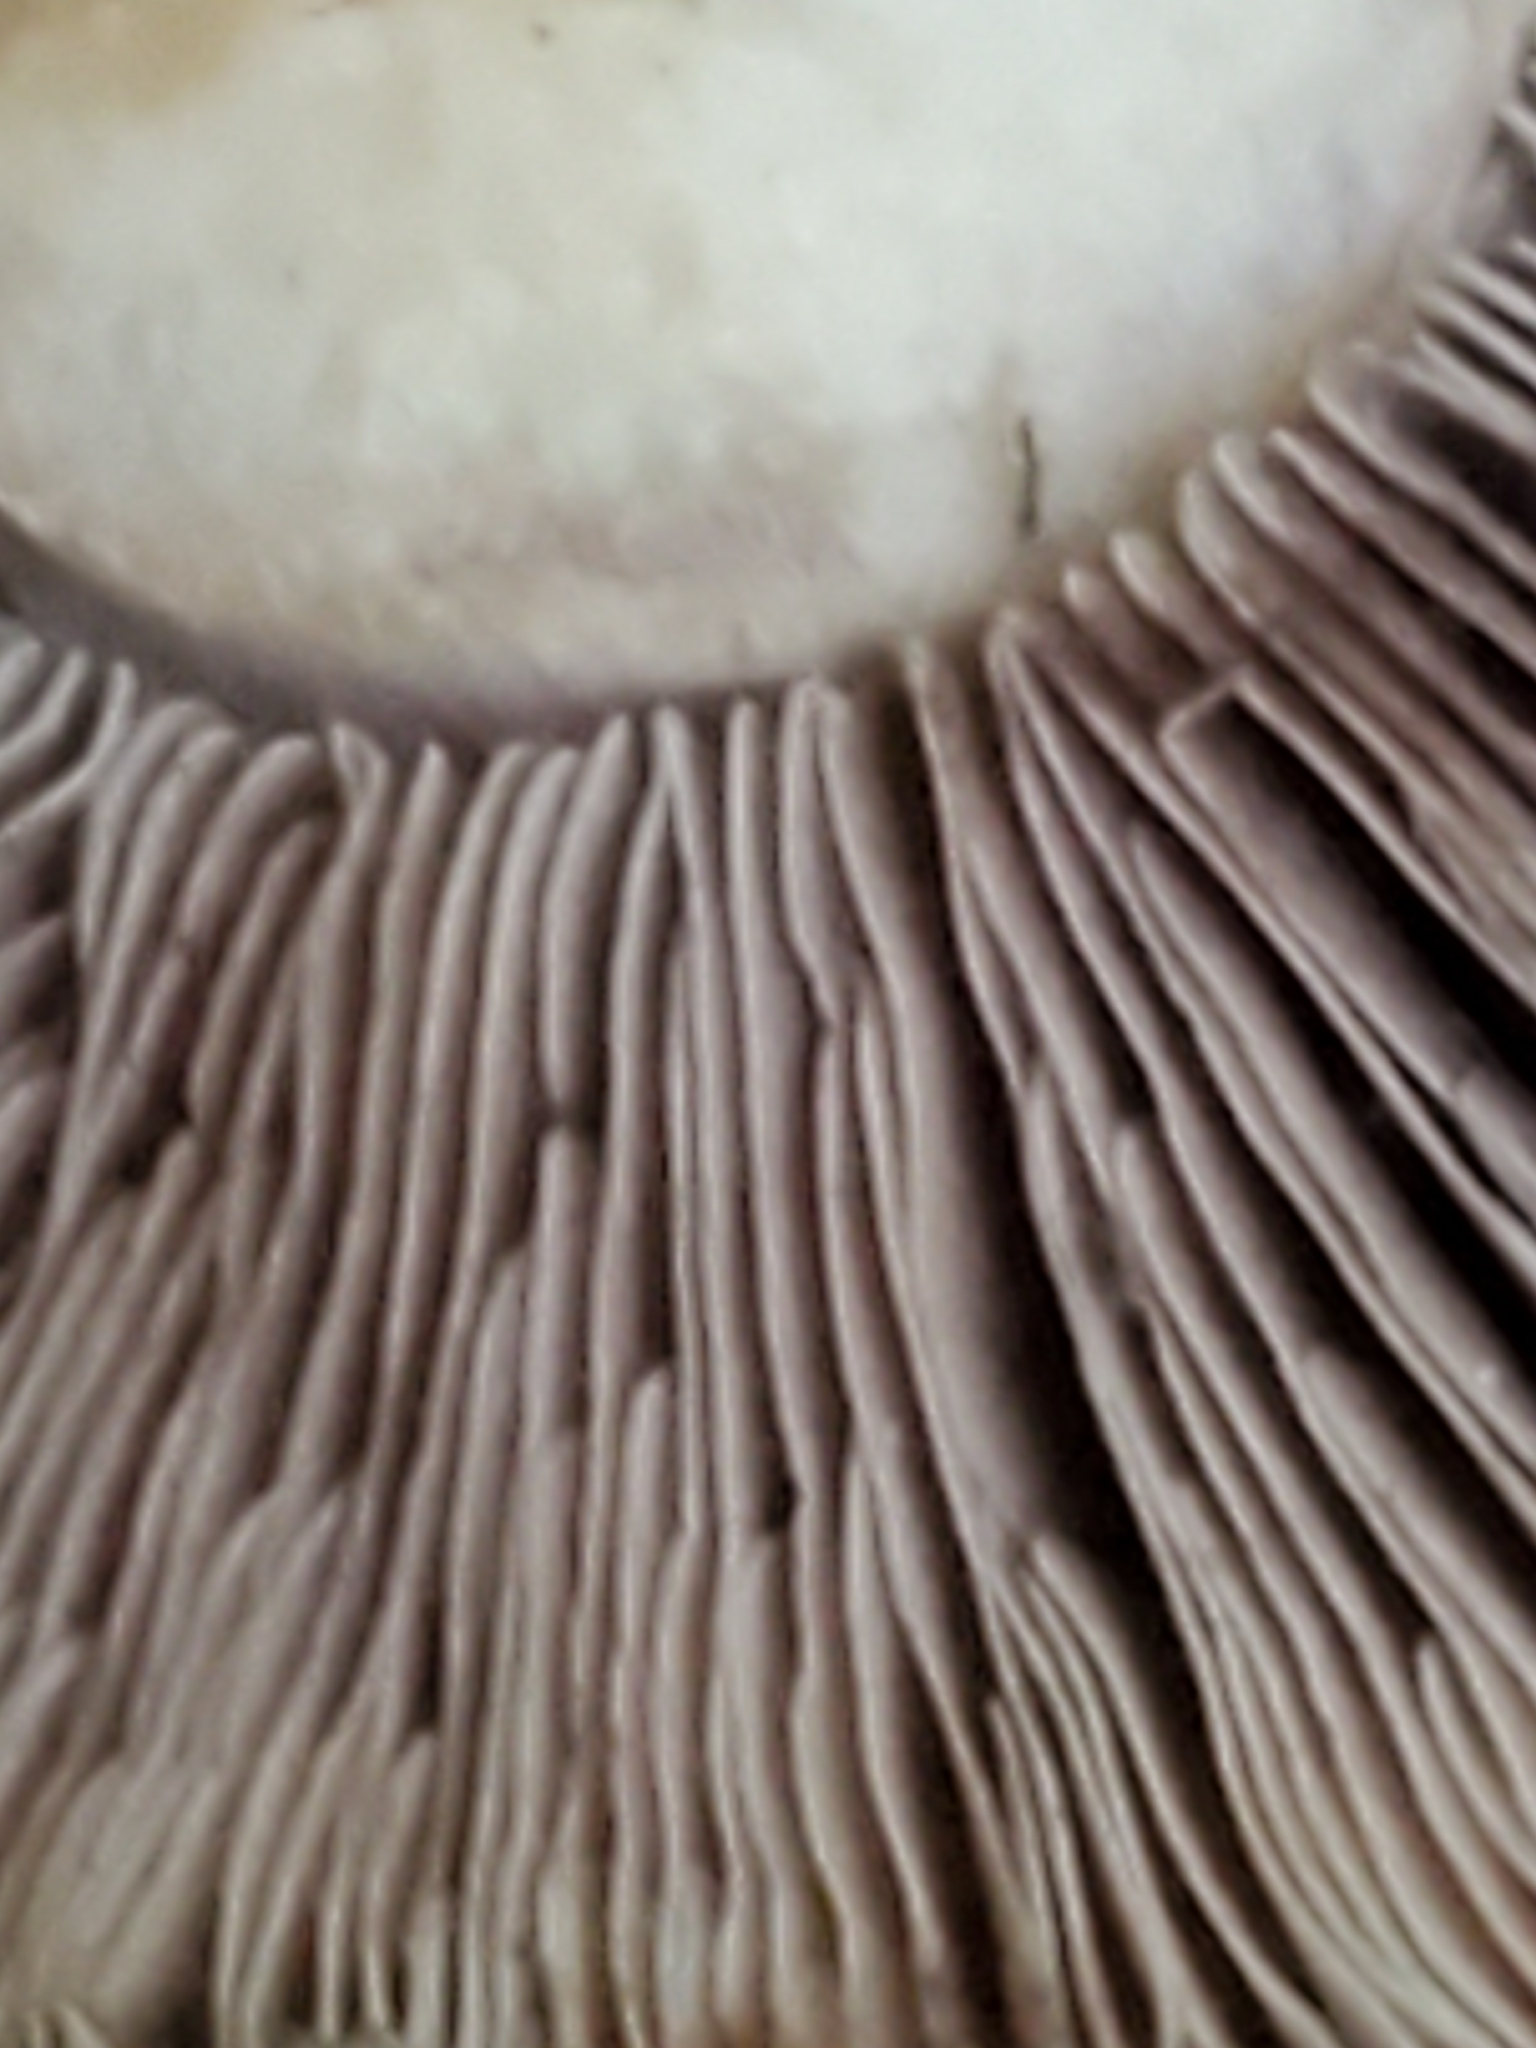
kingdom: Fungi
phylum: Basidiomycota
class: Agaricomycetes
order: Agaricales
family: Agaricaceae
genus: Agaricus
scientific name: Agaricus bitorquis
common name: Pavement mushroom
